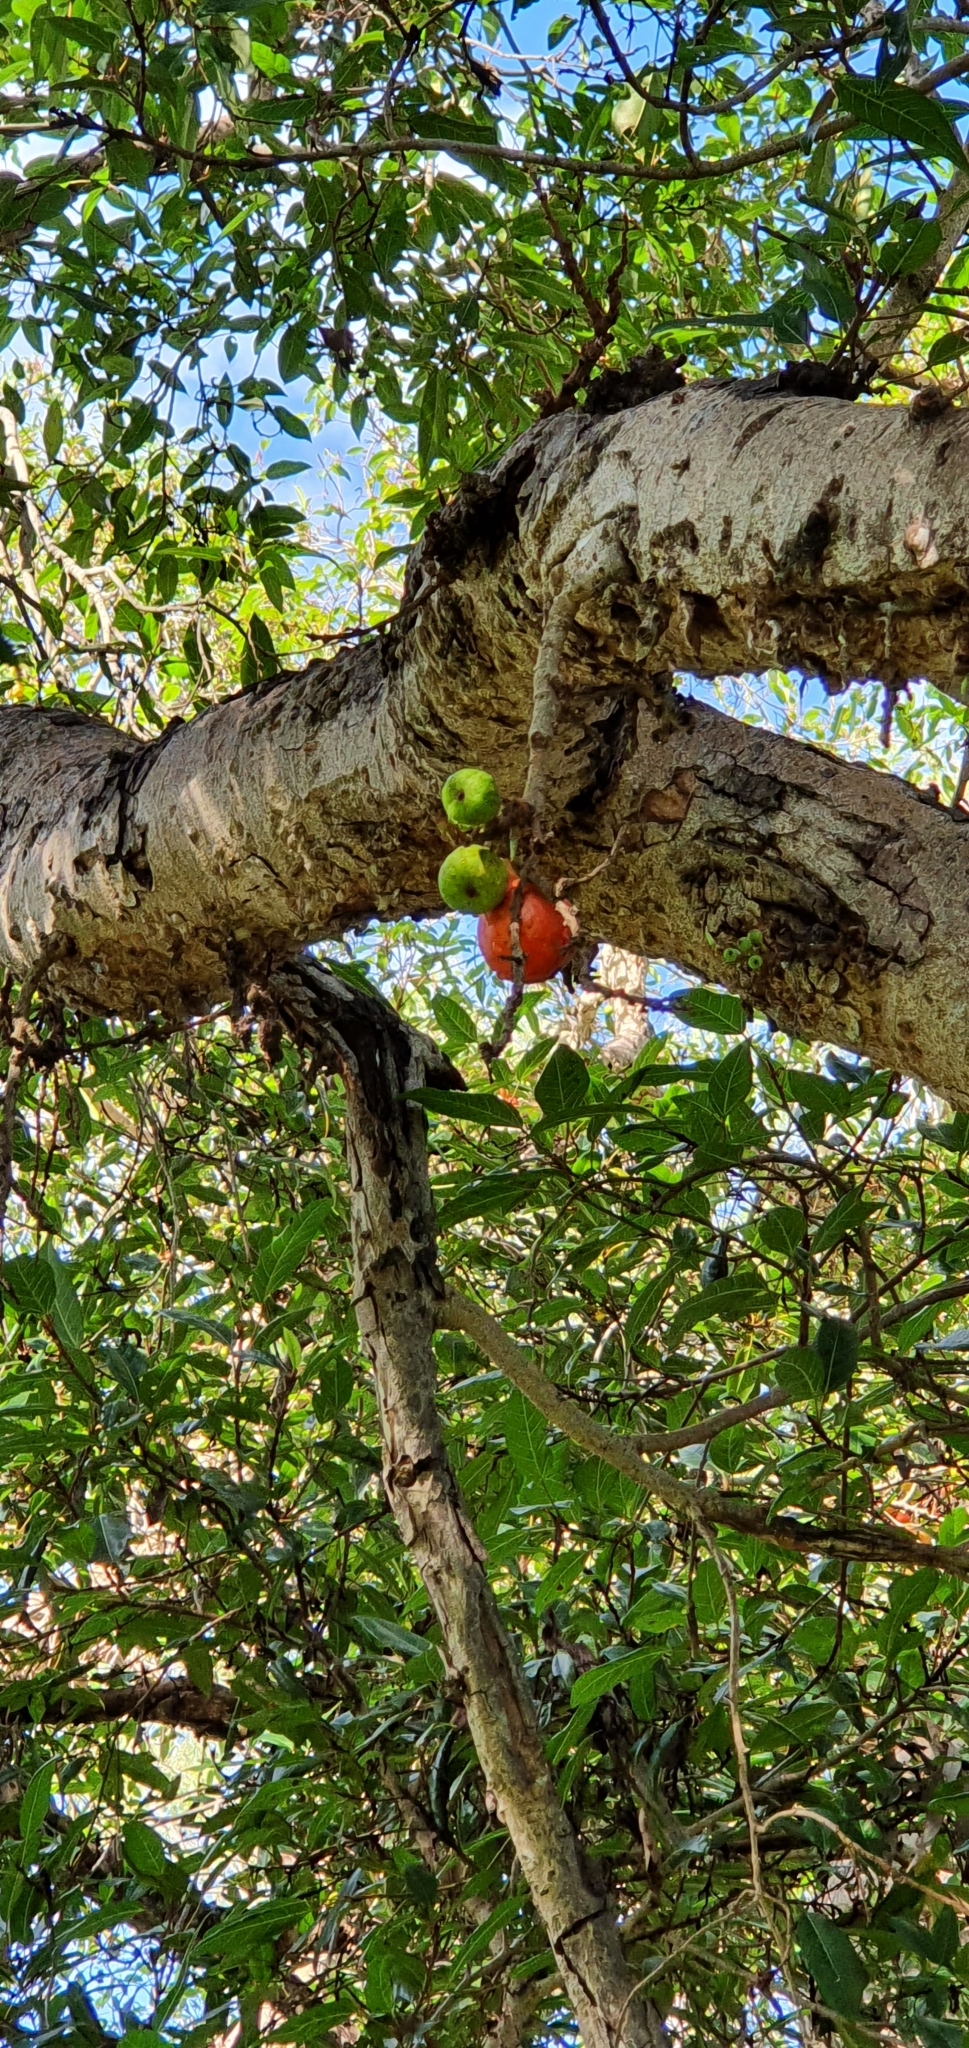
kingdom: Plantae
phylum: Tracheophyta
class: Magnoliopsida
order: Rosales
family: Moraceae
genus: Ficus
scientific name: Ficus racemosa
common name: Cluster fig
